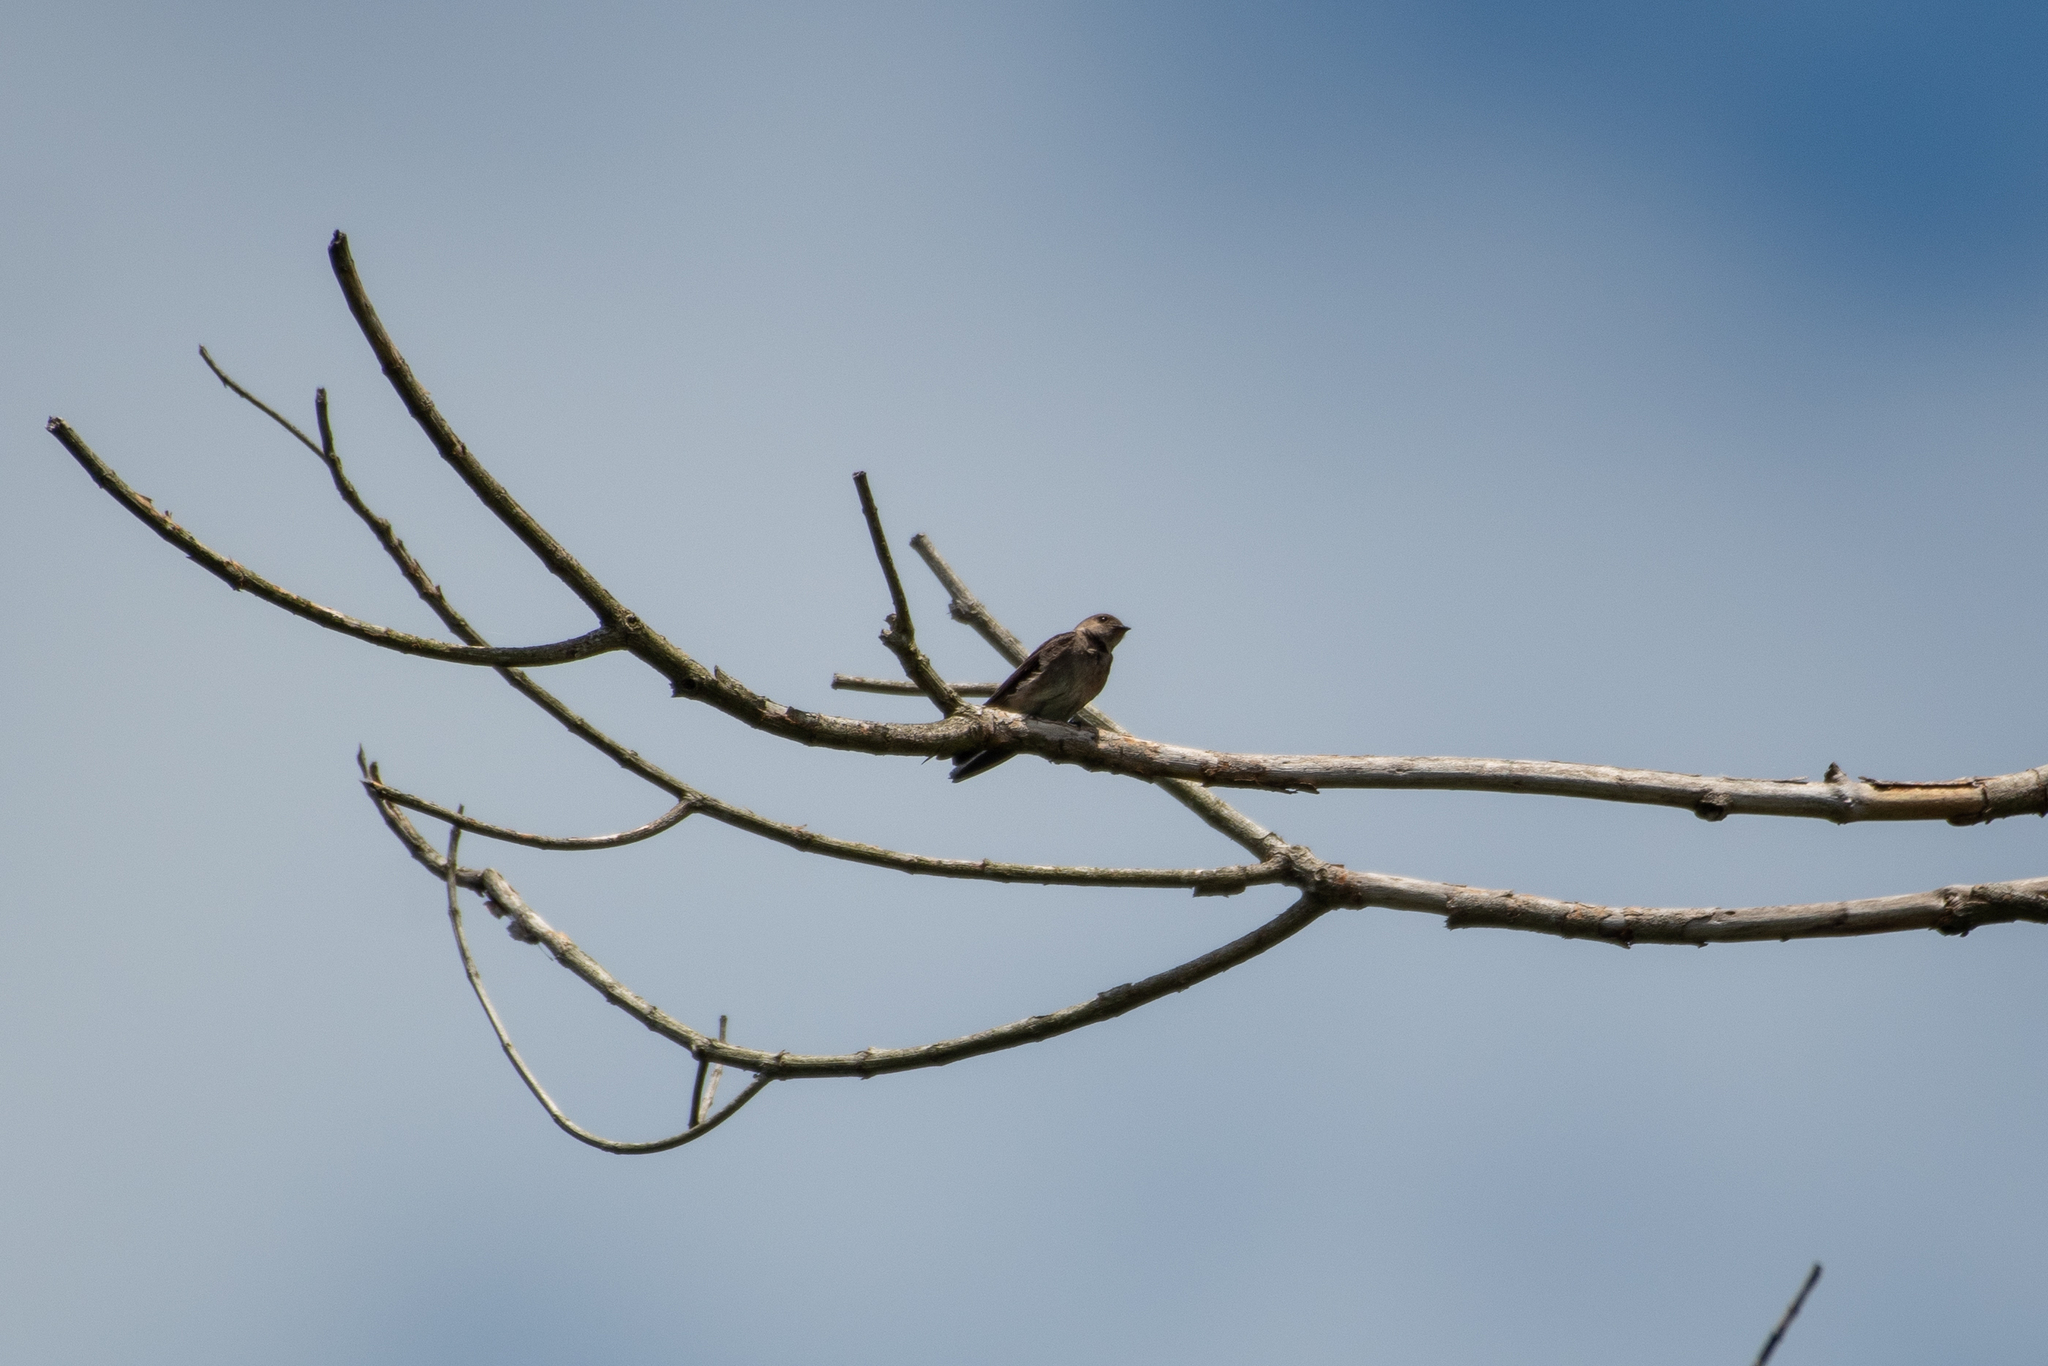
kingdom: Animalia
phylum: Chordata
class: Aves
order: Passeriformes
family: Hirundinidae
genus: Stelgidopteryx
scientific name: Stelgidopteryx serripennis
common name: Northern rough-winged swallow
